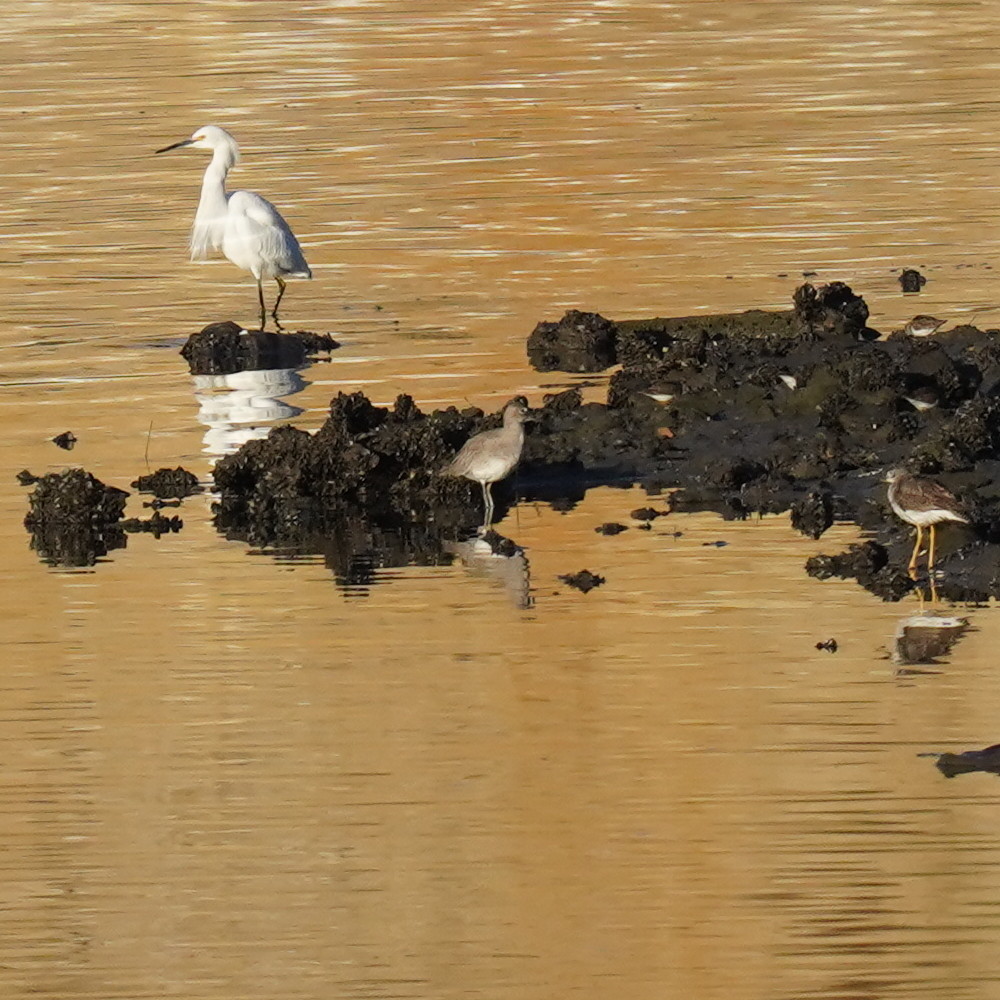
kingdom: Animalia
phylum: Chordata
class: Aves
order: Charadriiformes
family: Scolopacidae
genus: Tringa
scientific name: Tringa semipalmata
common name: Willet
